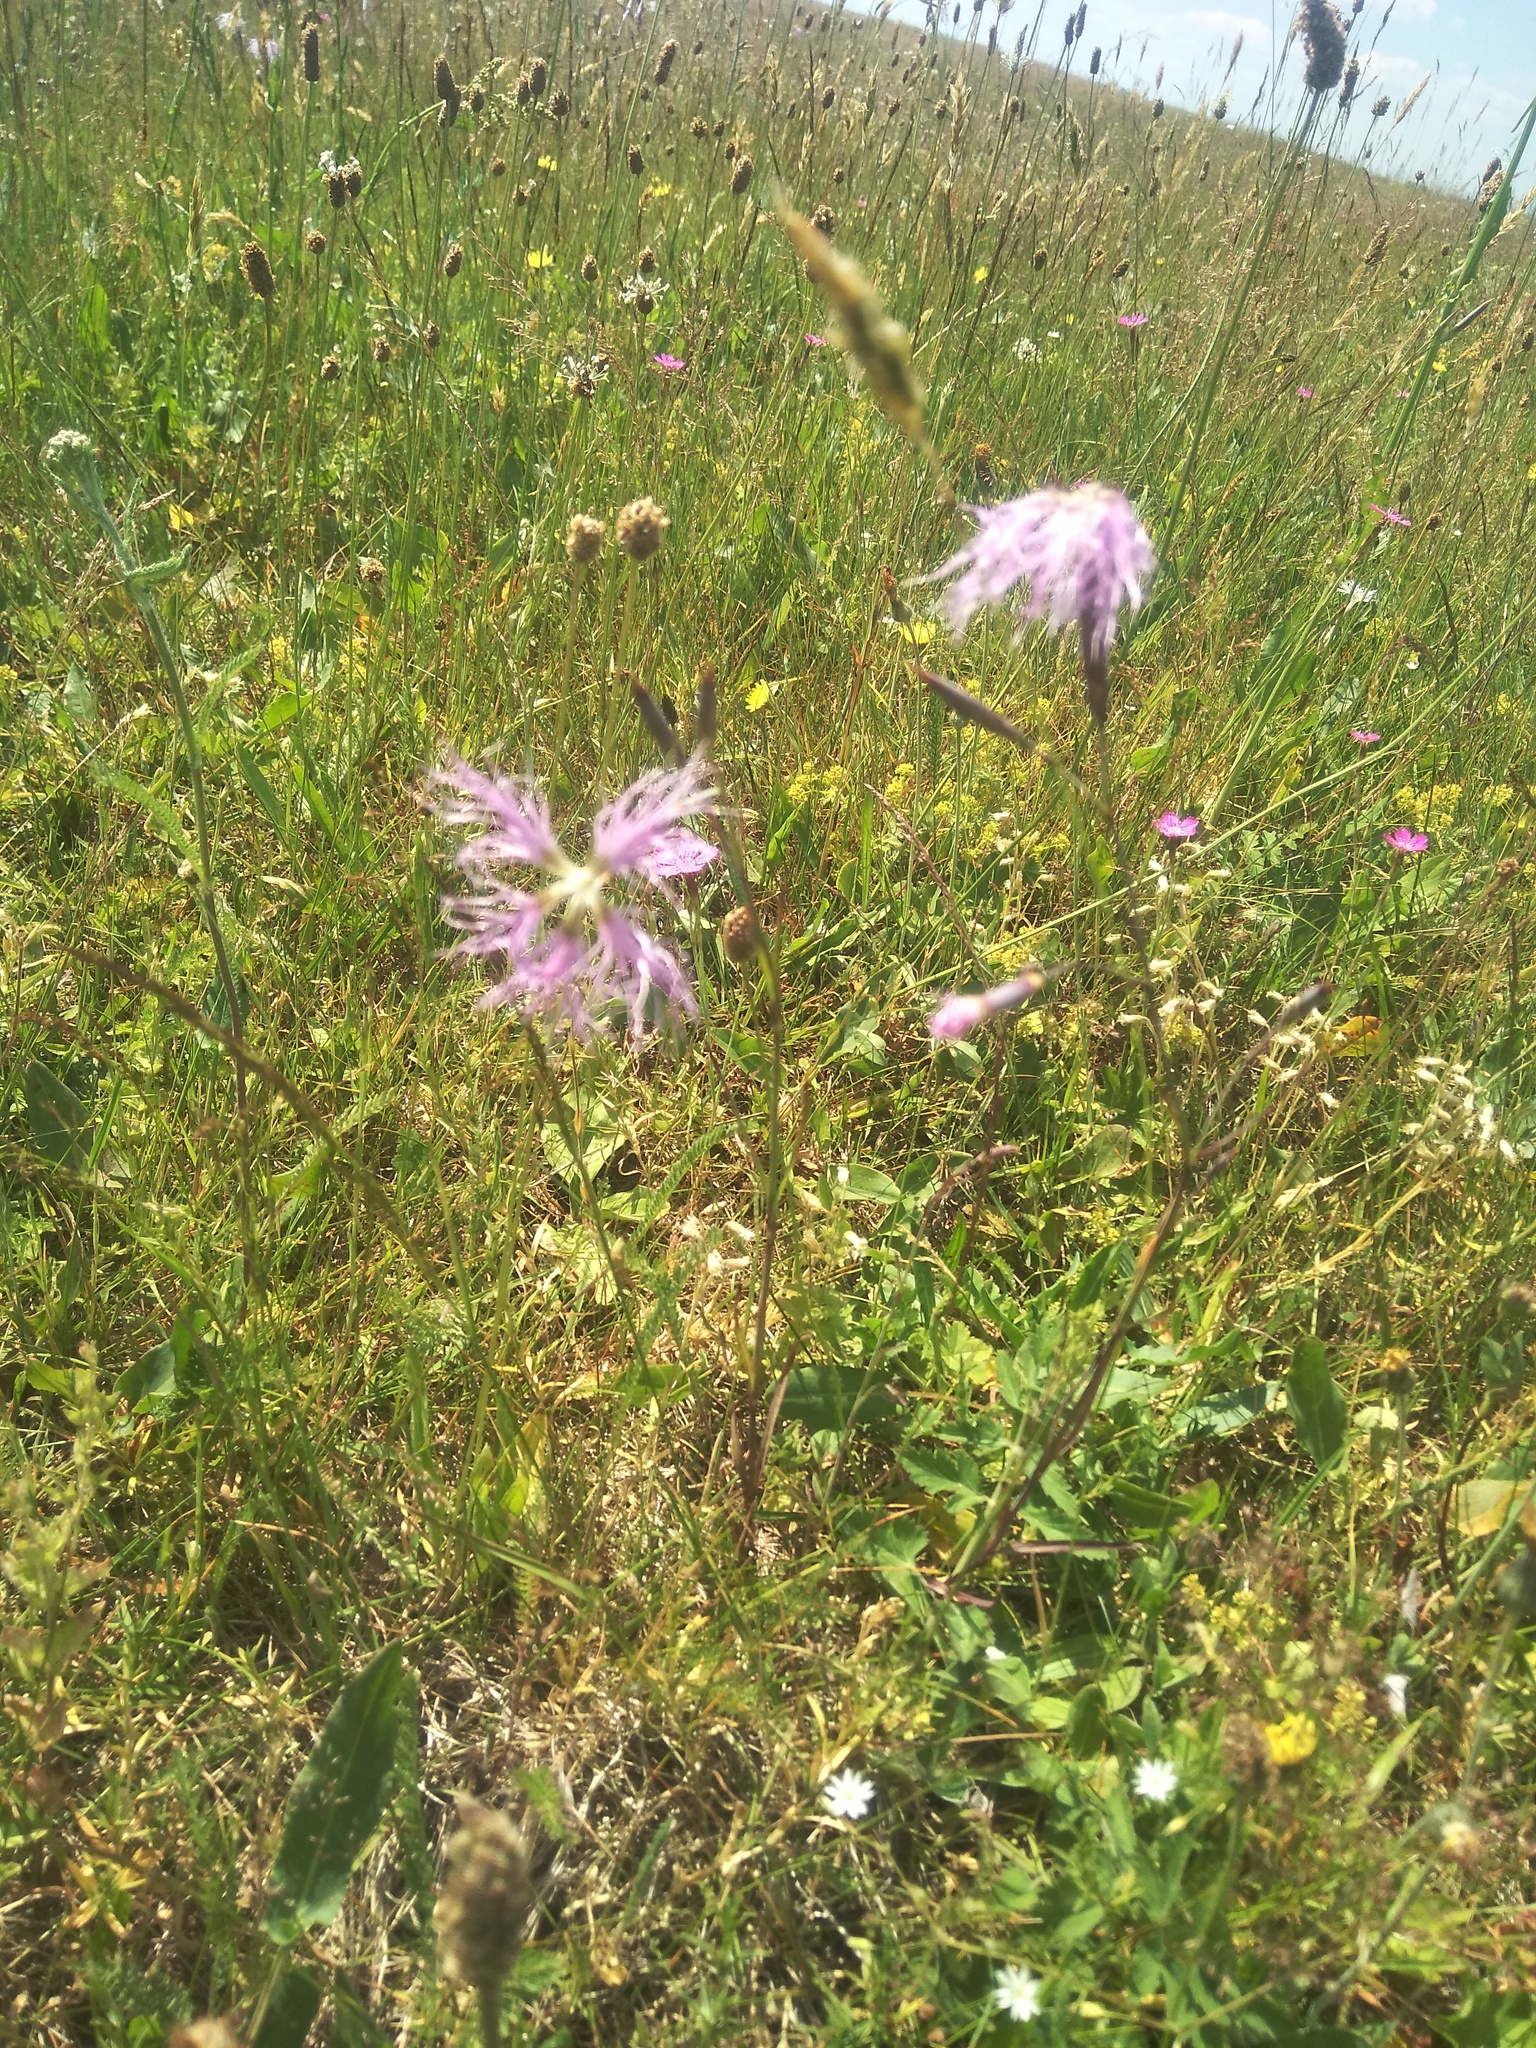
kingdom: Plantae
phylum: Tracheophyta
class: Magnoliopsida
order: Caryophyllales
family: Caryophyllaceae
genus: Dianthus
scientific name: Dianthus superbus
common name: Fringed pink
